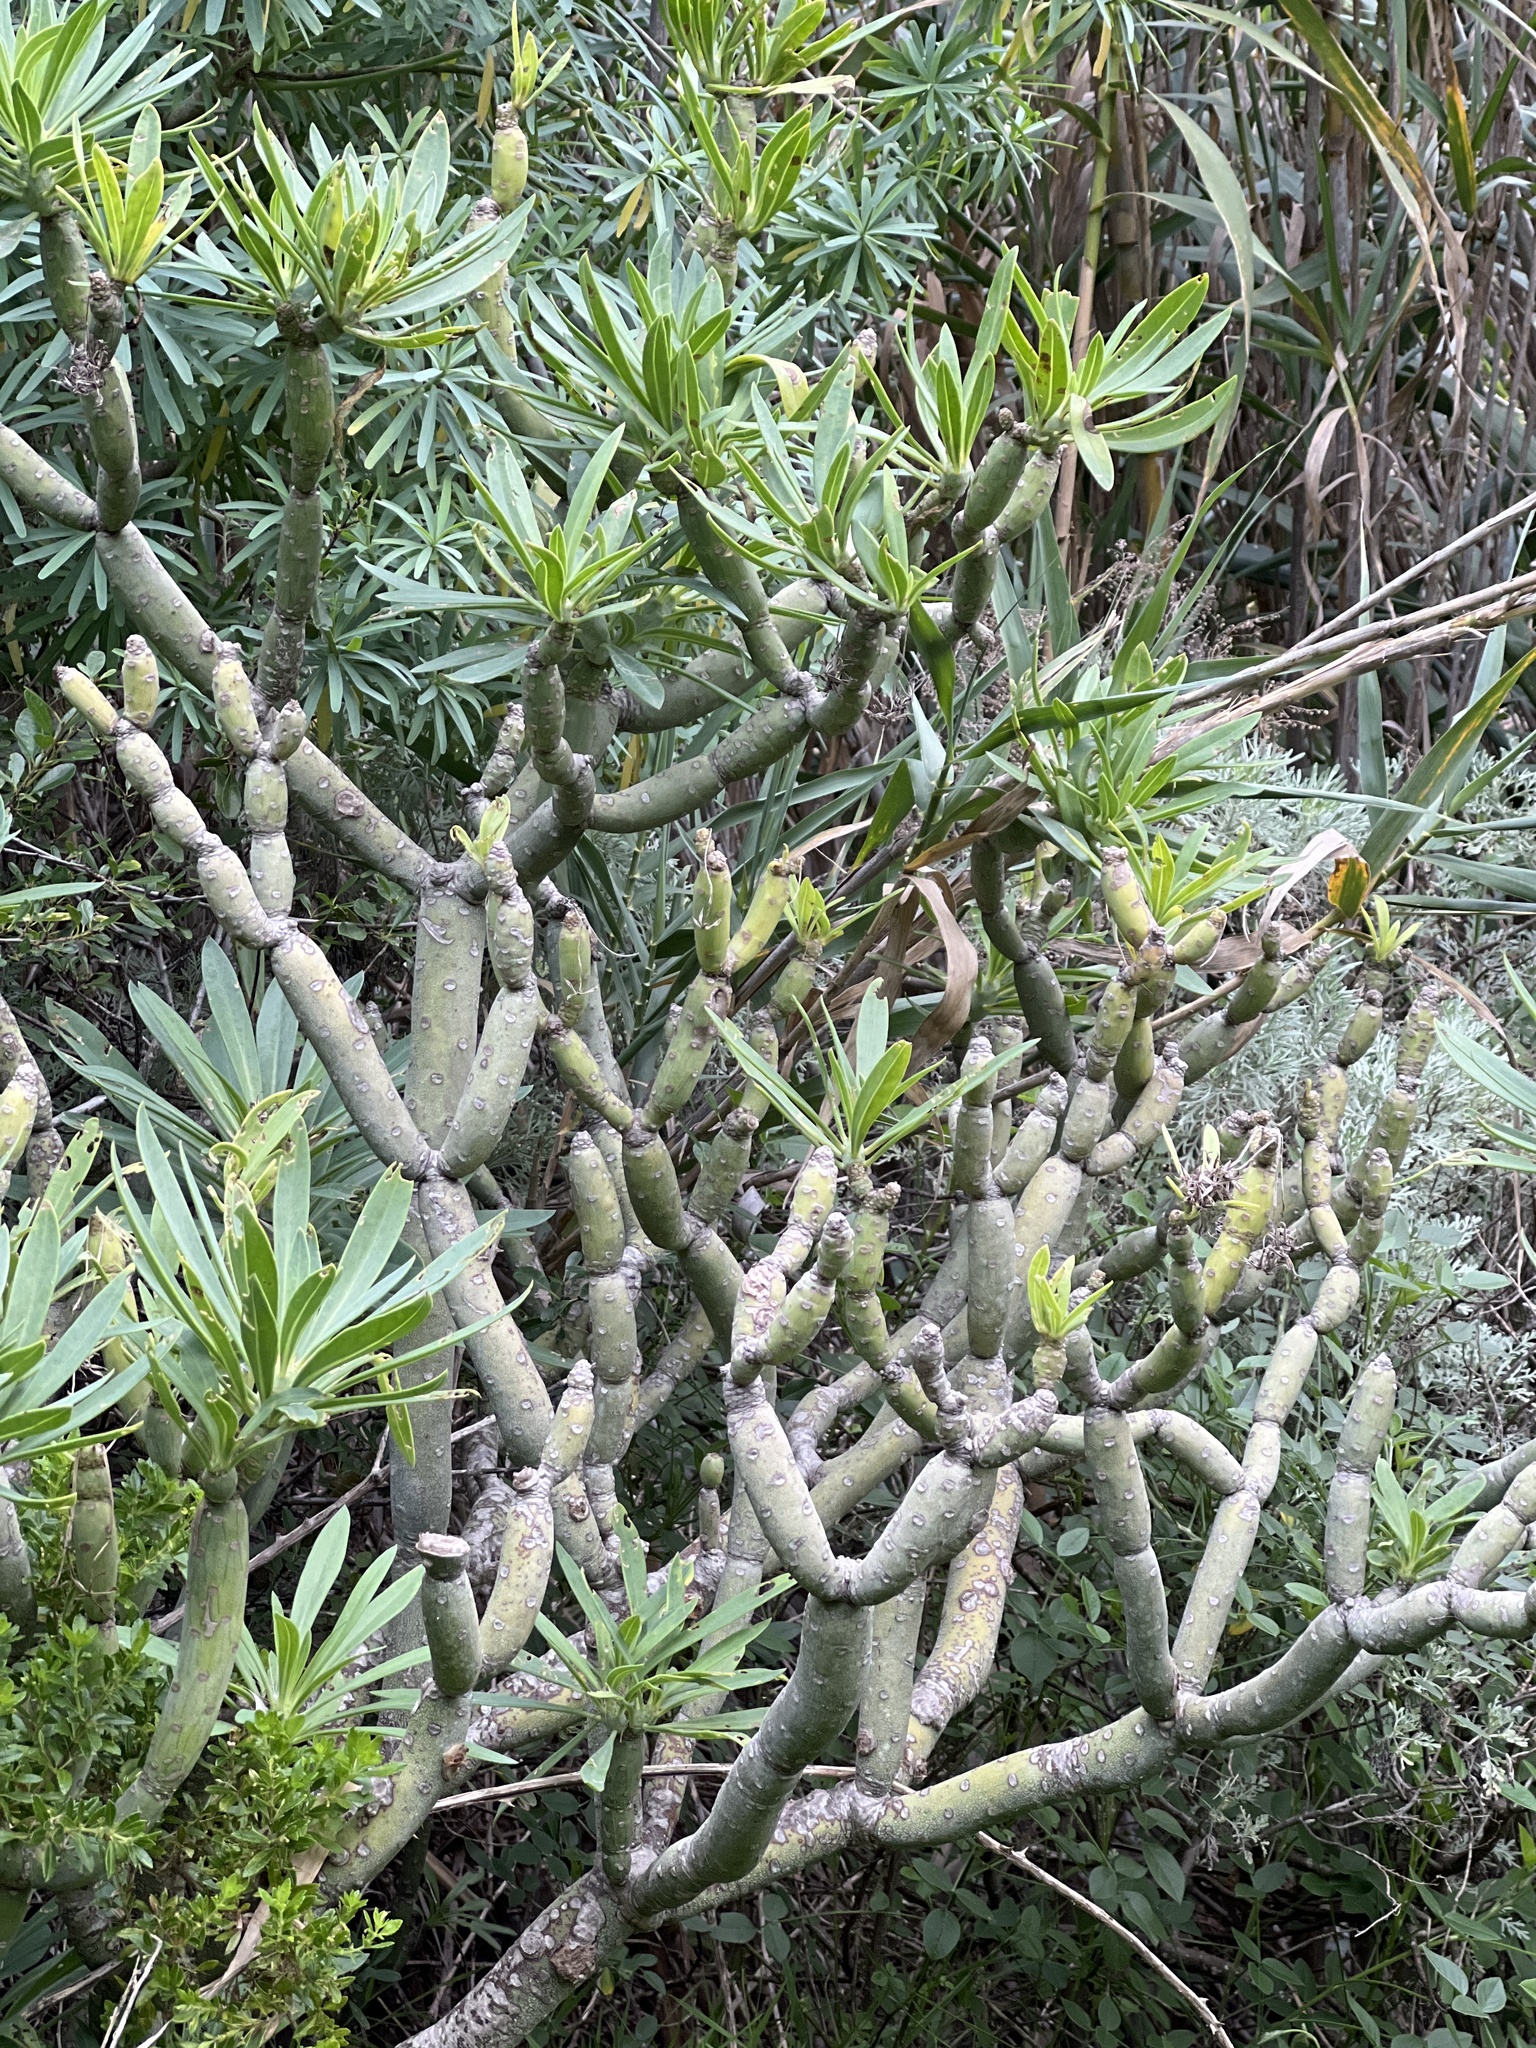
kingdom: Plantae
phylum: Tracheophyta
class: Magnoliopsida
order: Asterales
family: Asteraceae
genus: Kleinia
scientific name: Kleinia neriifolia
